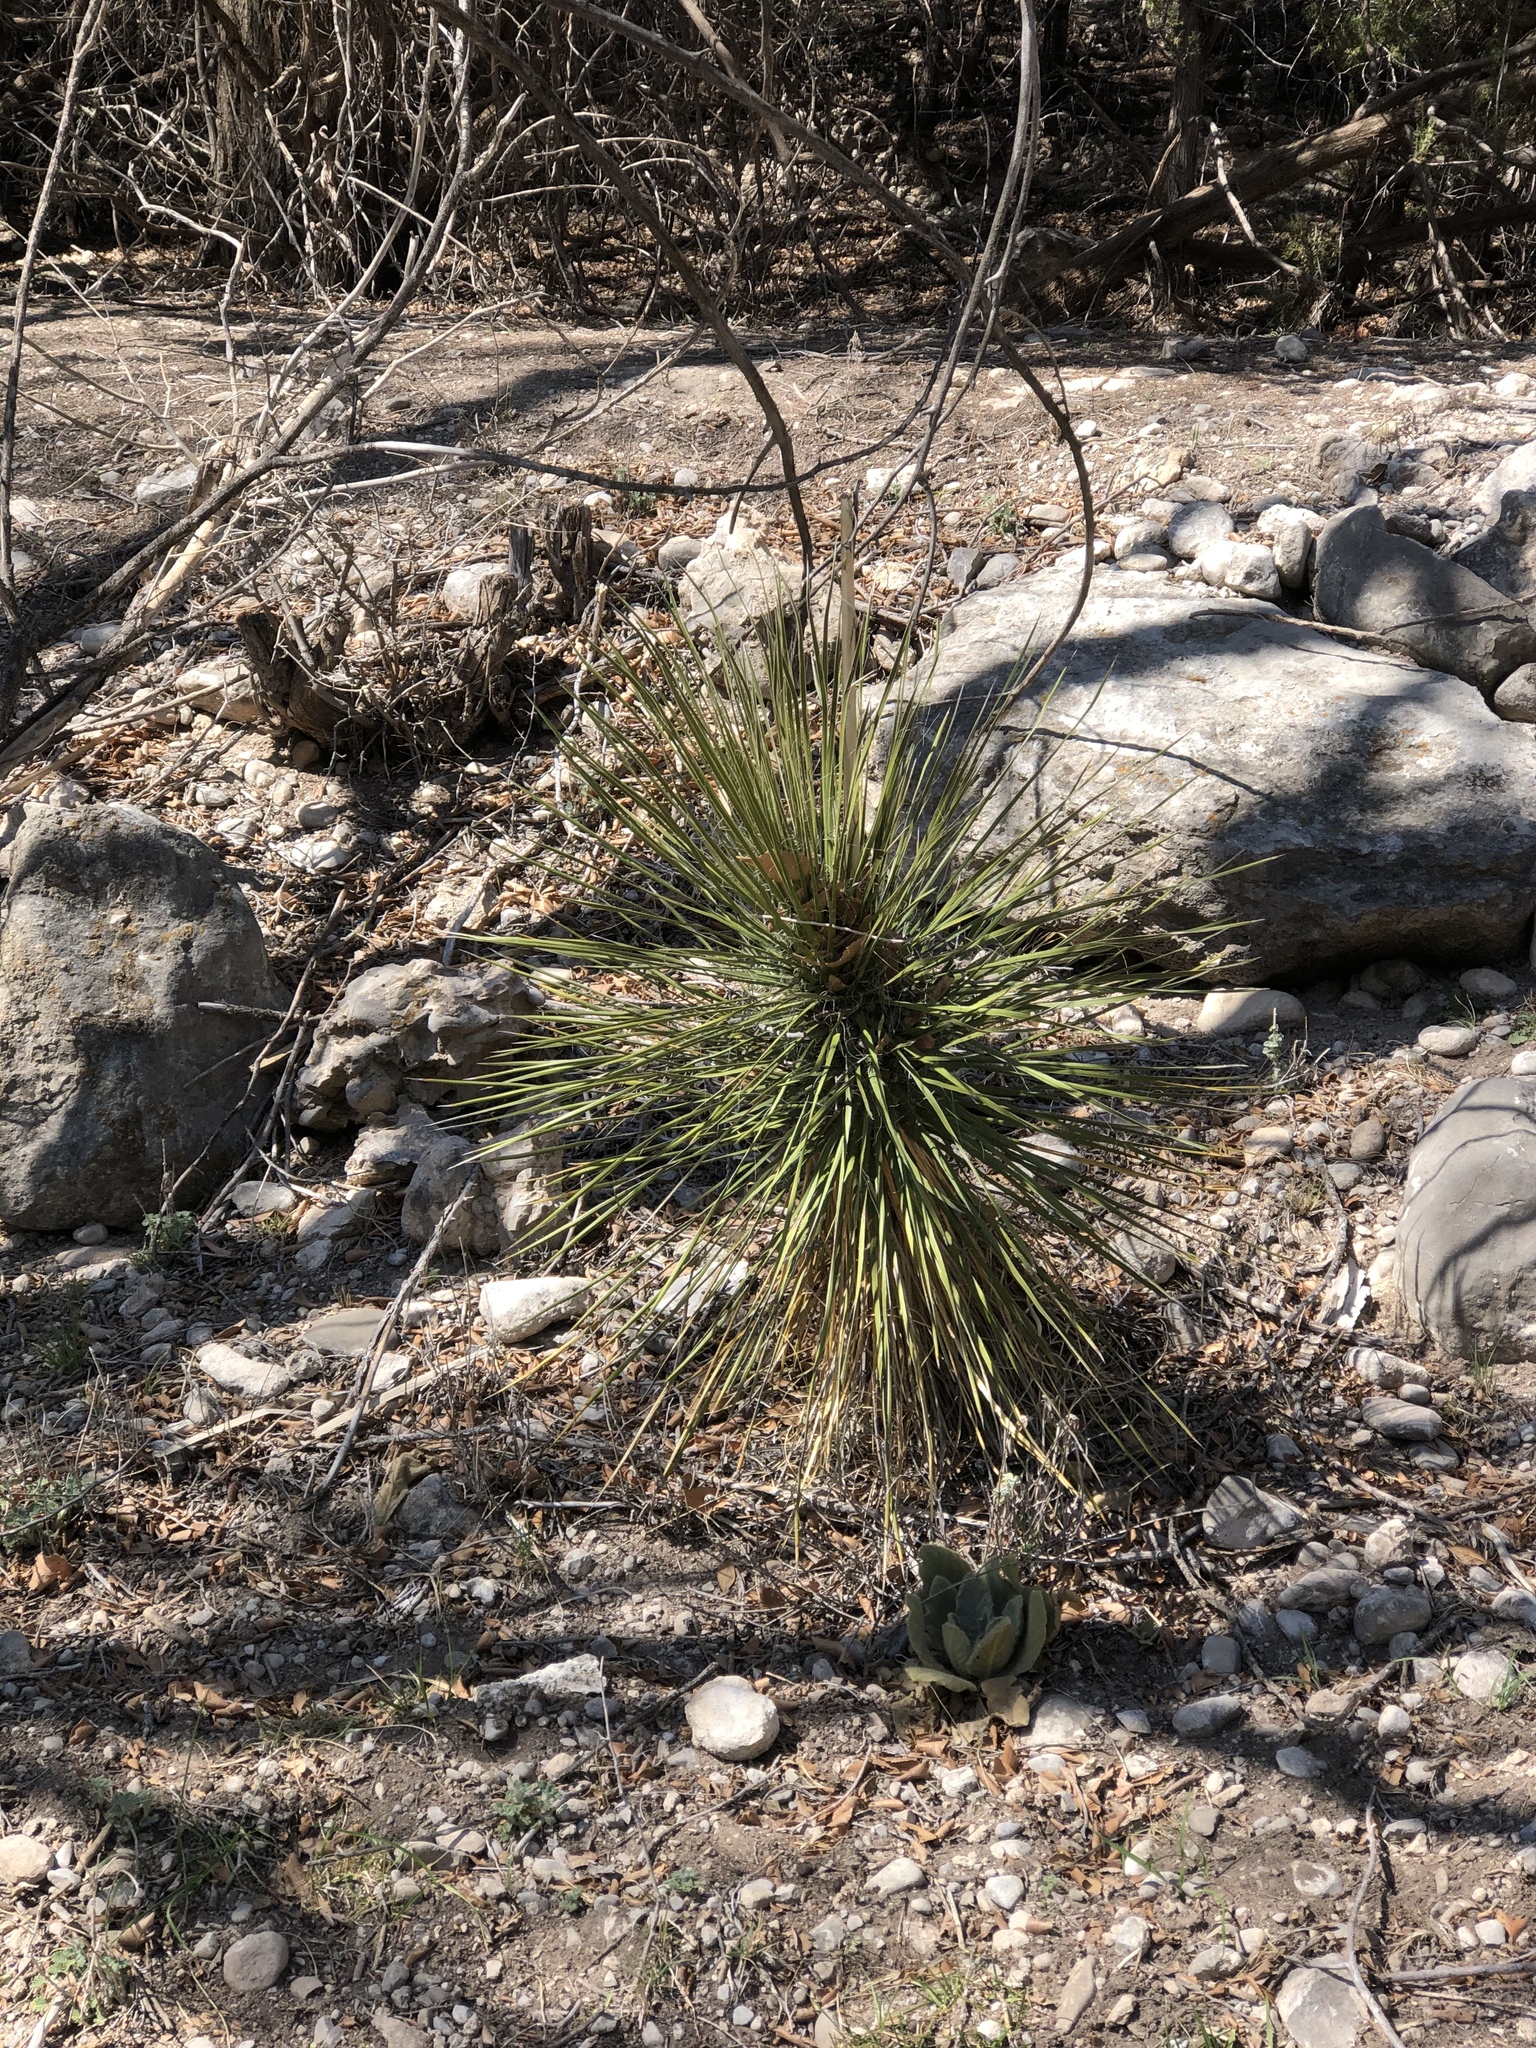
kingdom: Plantae
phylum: Tracheophyta
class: Liliopsida
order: Asparagales
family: Asparagaceae
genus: Yucca
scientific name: Yucca elata
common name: Palmella
